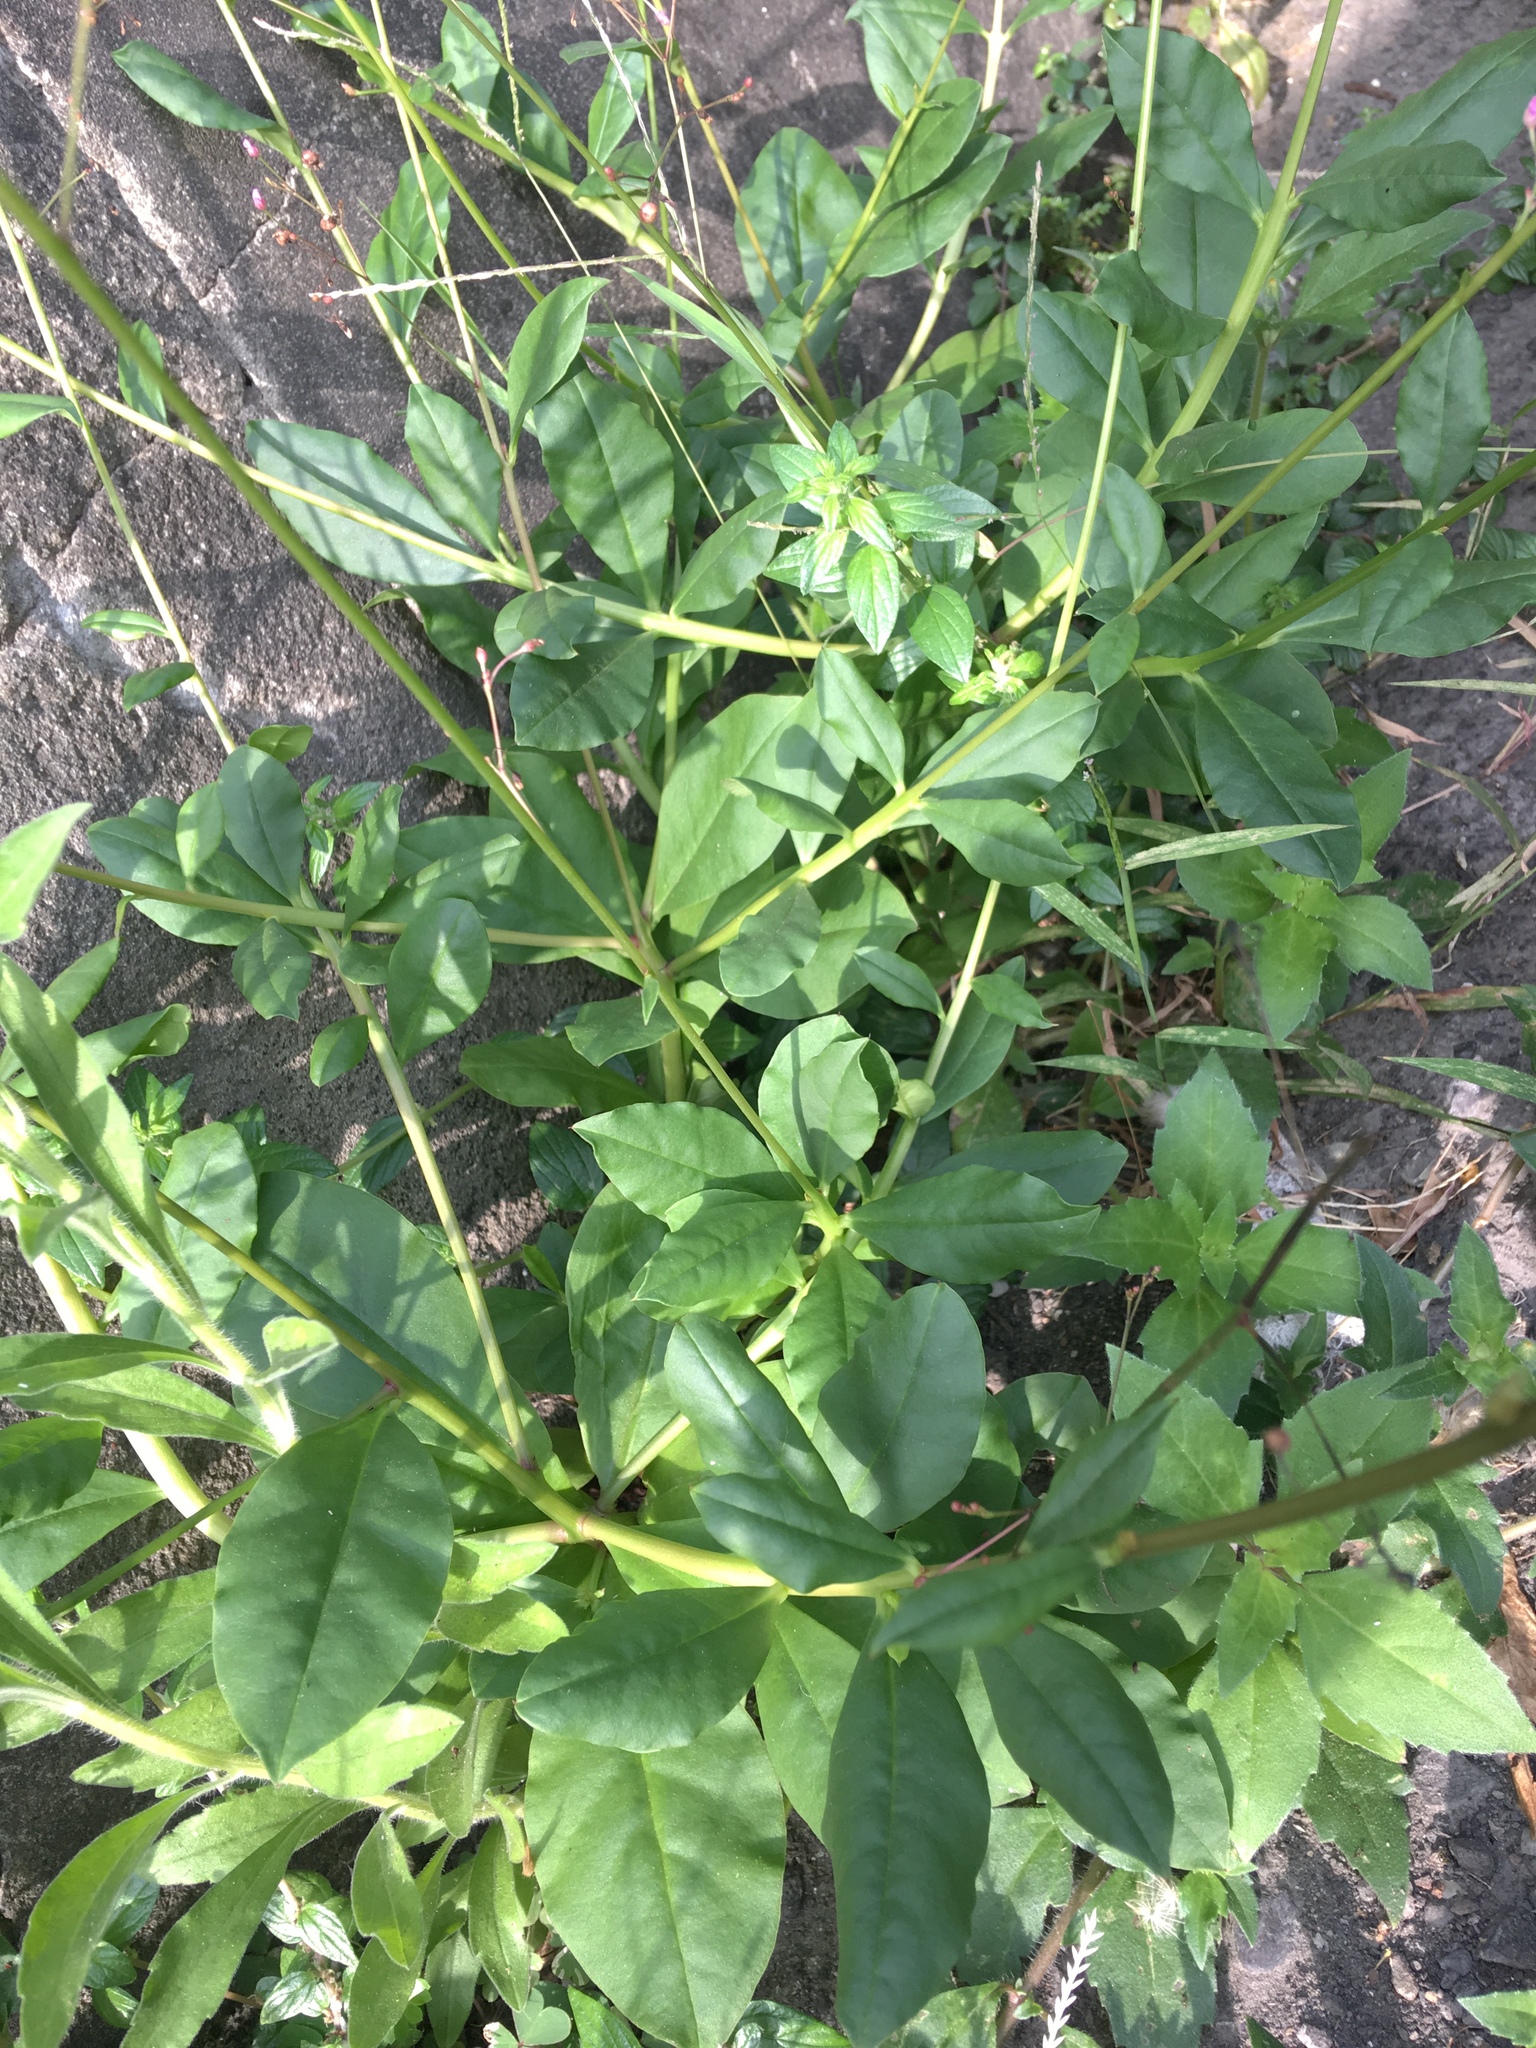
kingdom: Plantae
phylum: Tracheophyta
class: Magnoliopsida
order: Caryophyllales
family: Talinaceae
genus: Talinum
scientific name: Talinum paniculatum
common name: Jewels of opar
